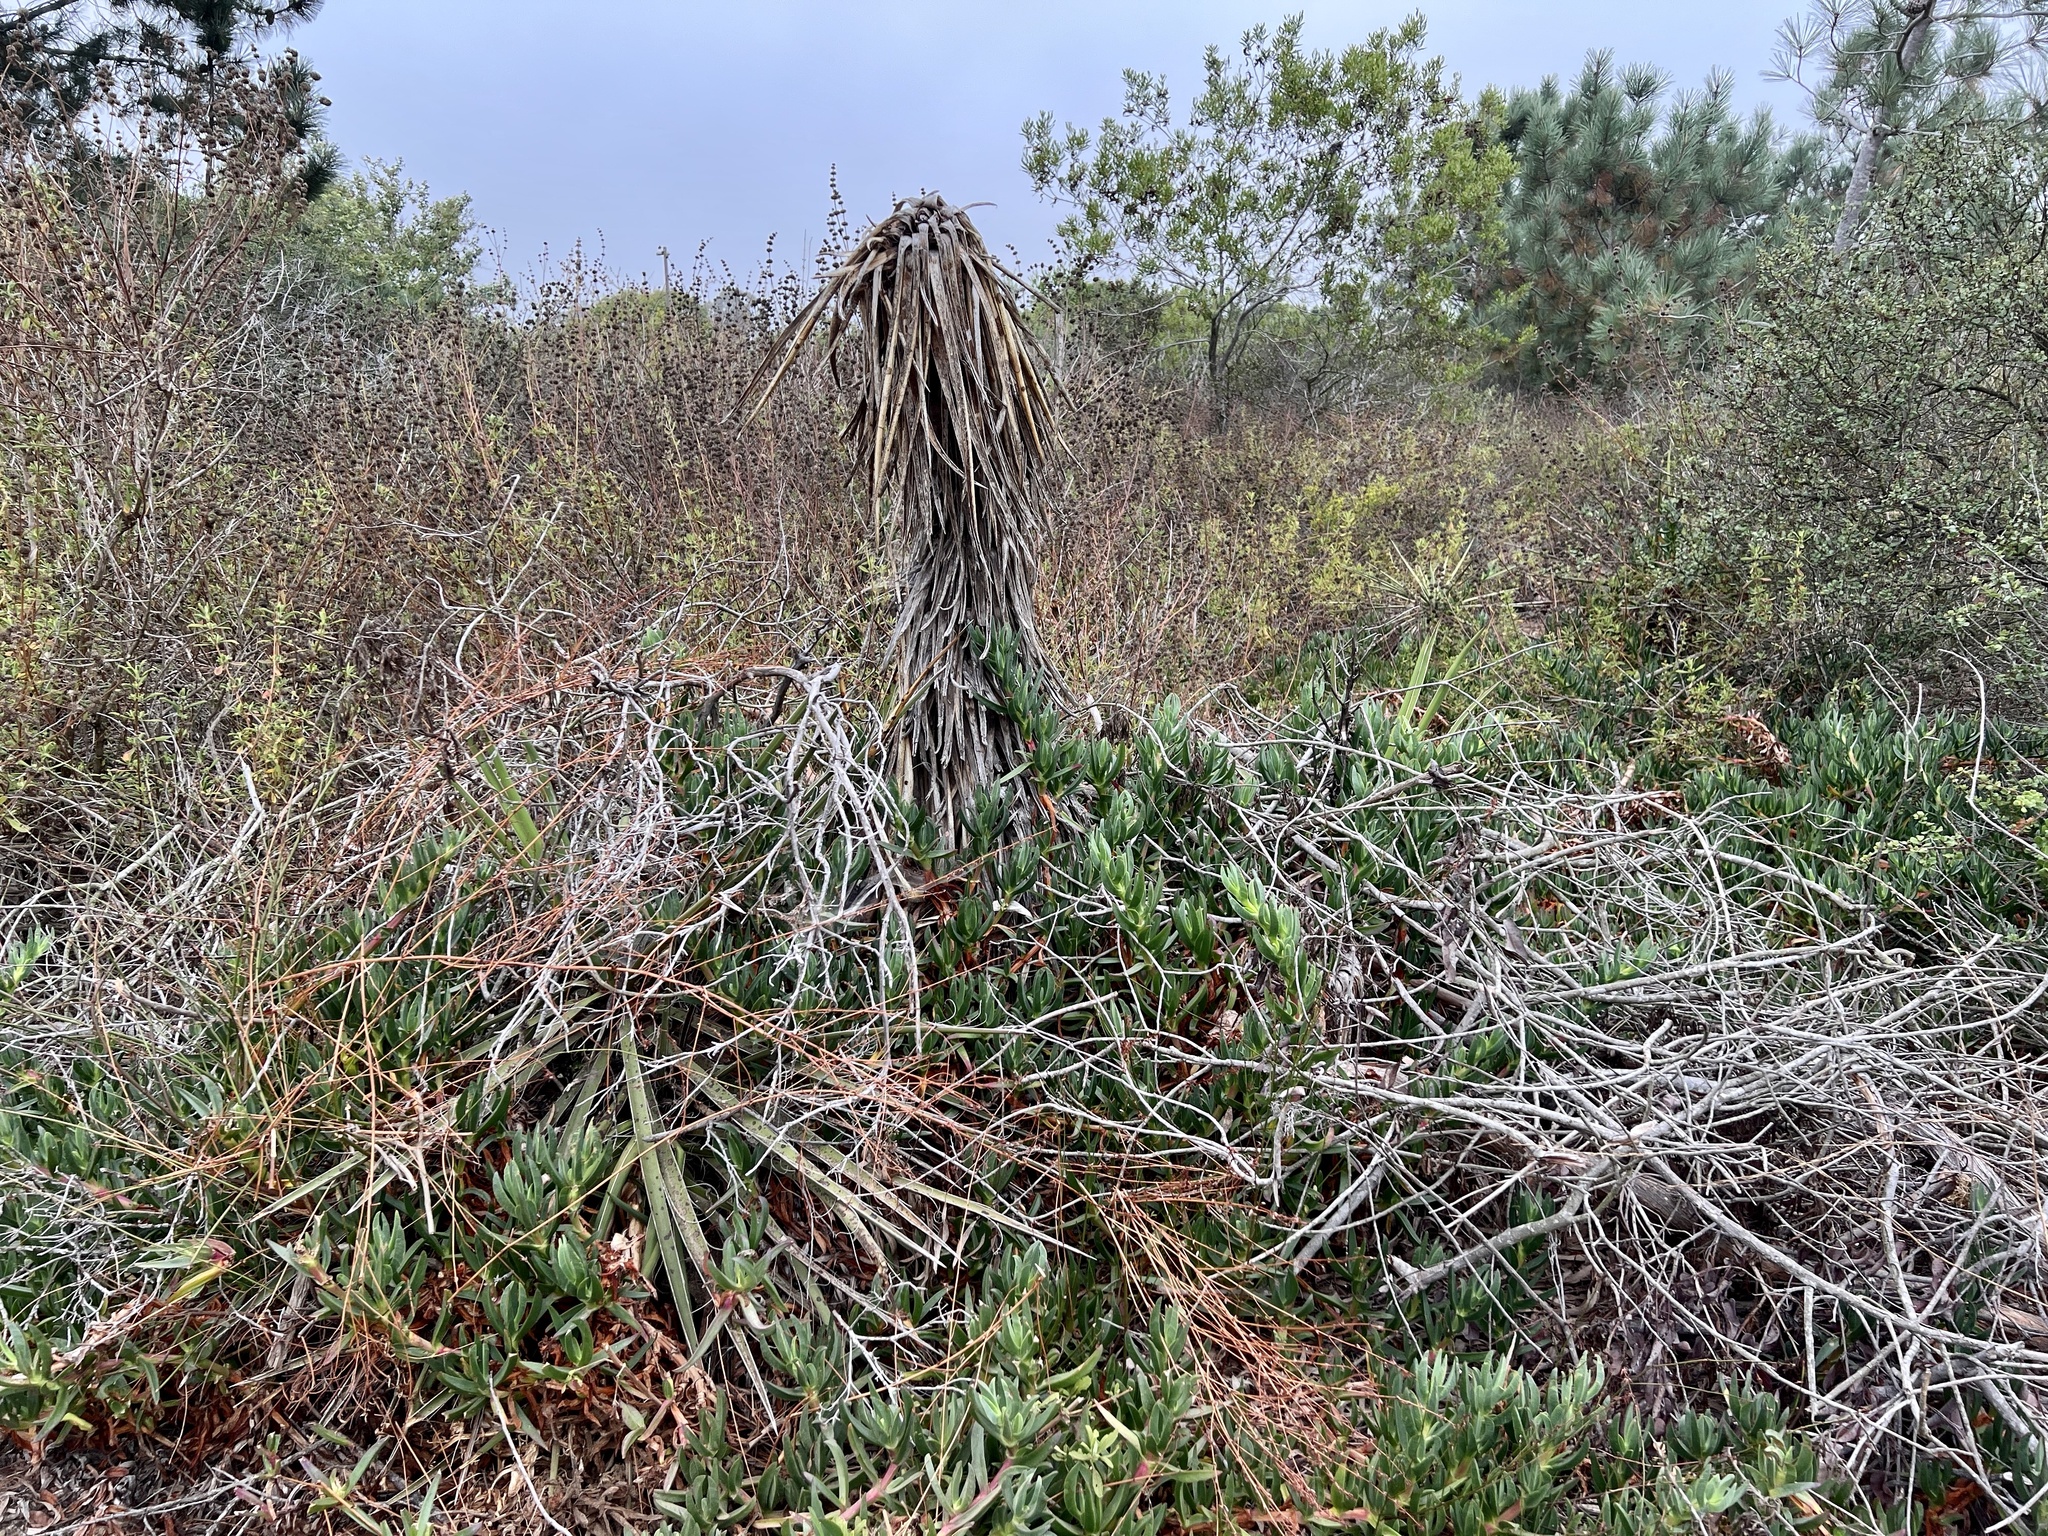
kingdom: Plantae
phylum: Tracheophyta
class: Liliopsida
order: Asparagales
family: Asparagaceae
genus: Yucca
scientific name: Yucca schidigera
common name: Mojave yucca
